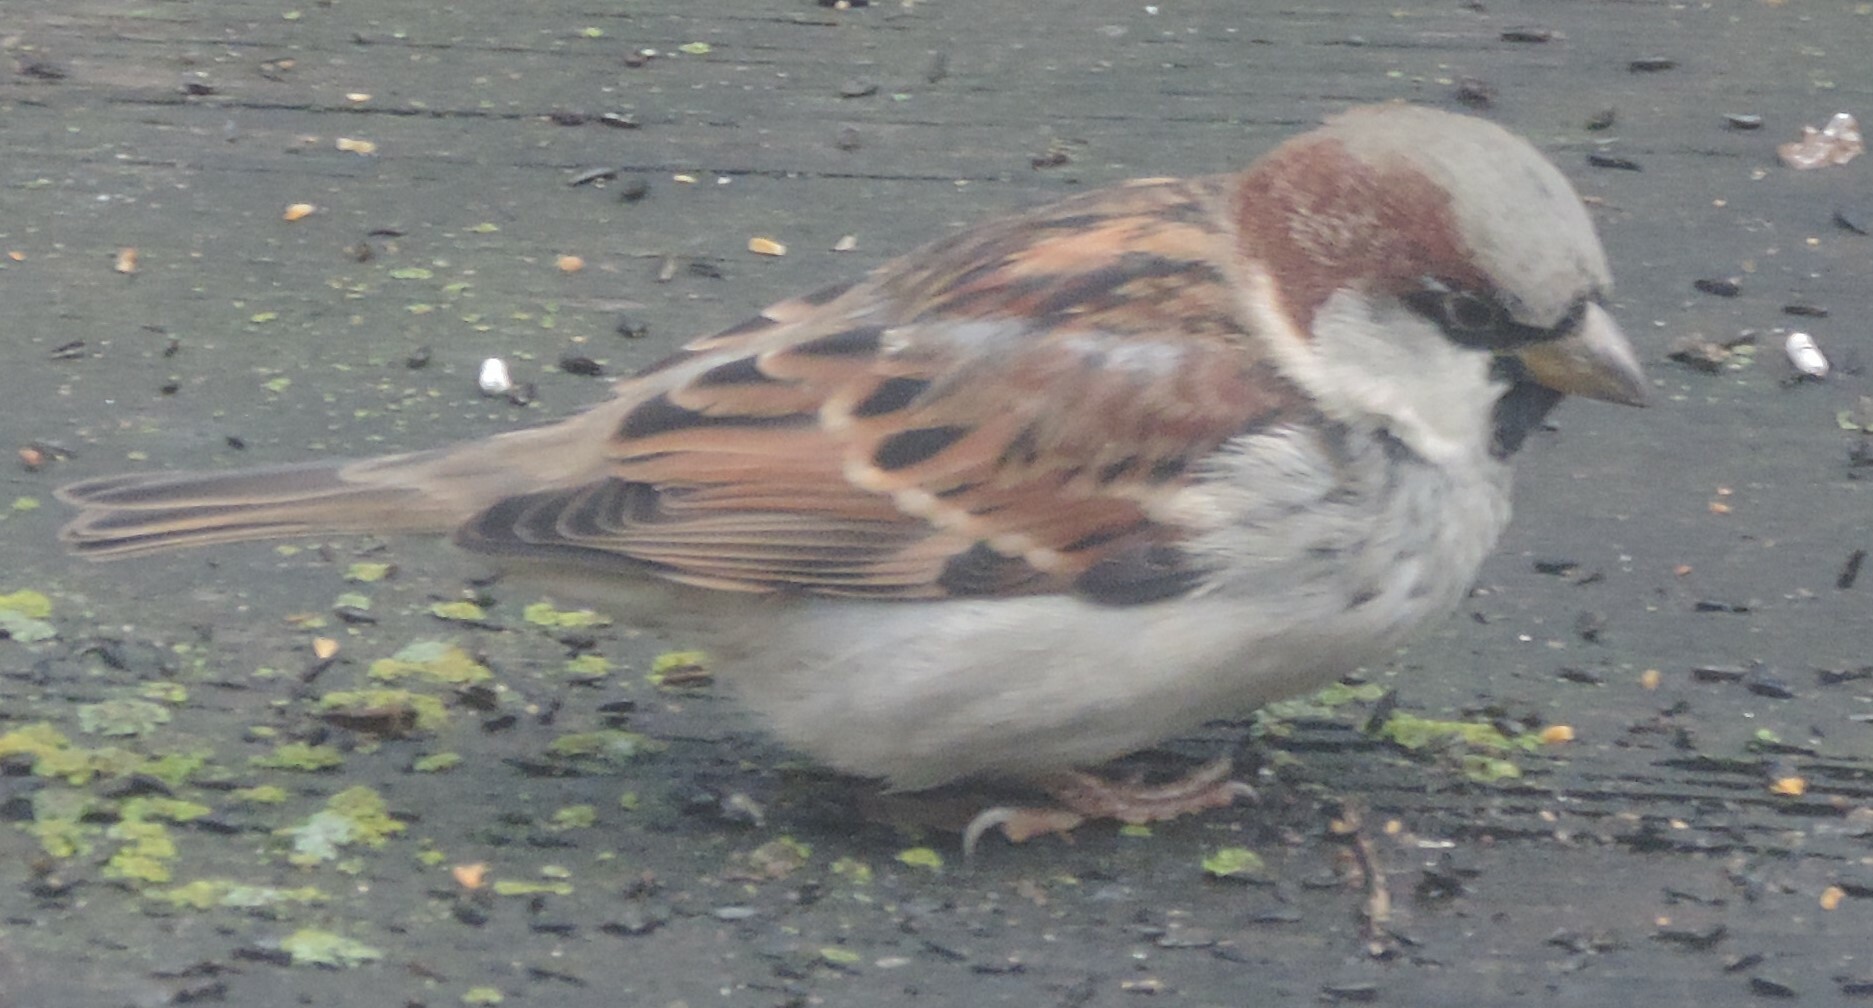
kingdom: Animalia
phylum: Chordata
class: Aves
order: Passeriformes
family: Passeridae
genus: Passer
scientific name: Passer domesticus
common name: House sparrow
